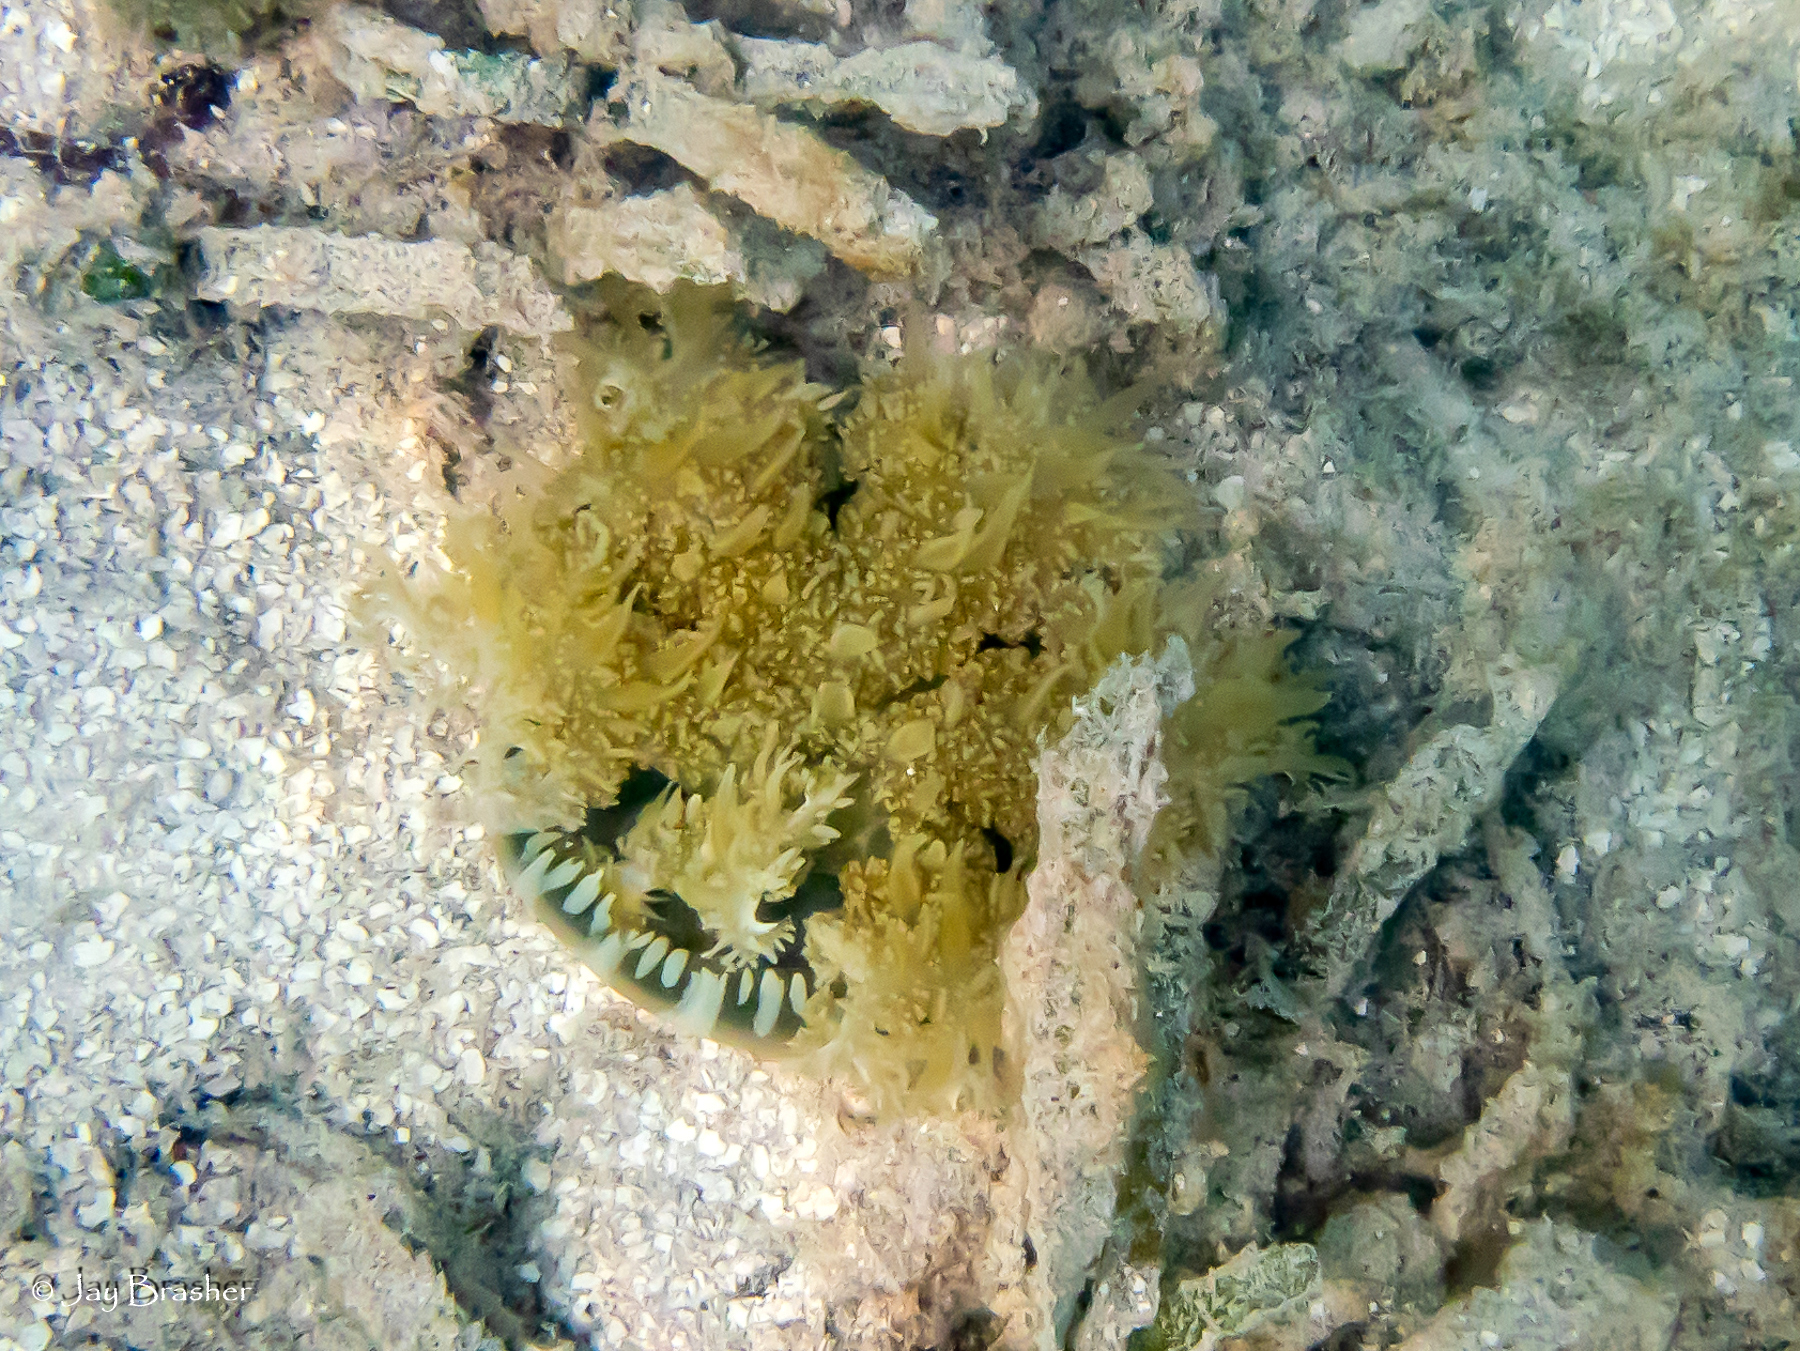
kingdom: Animalia
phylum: Cnidaria
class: Scyphozoa
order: Rhizostomeae
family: Cassiopeidae
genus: Cassiopea
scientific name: Cassiopea andromeda
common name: Upside-down jellyfish
